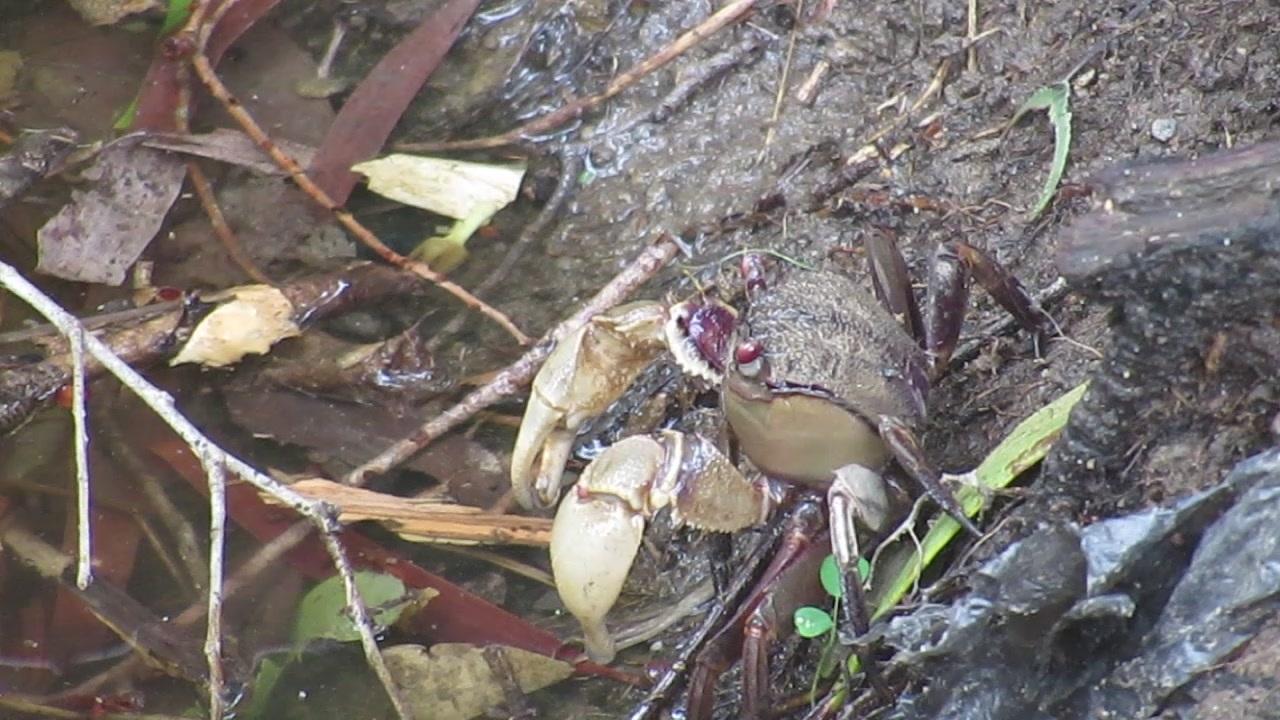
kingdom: Animalia
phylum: Arthropoda
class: Malacostraca
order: Decapoda
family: Sesarmidae
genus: Tiomanium
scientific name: Tiomanium indicum
